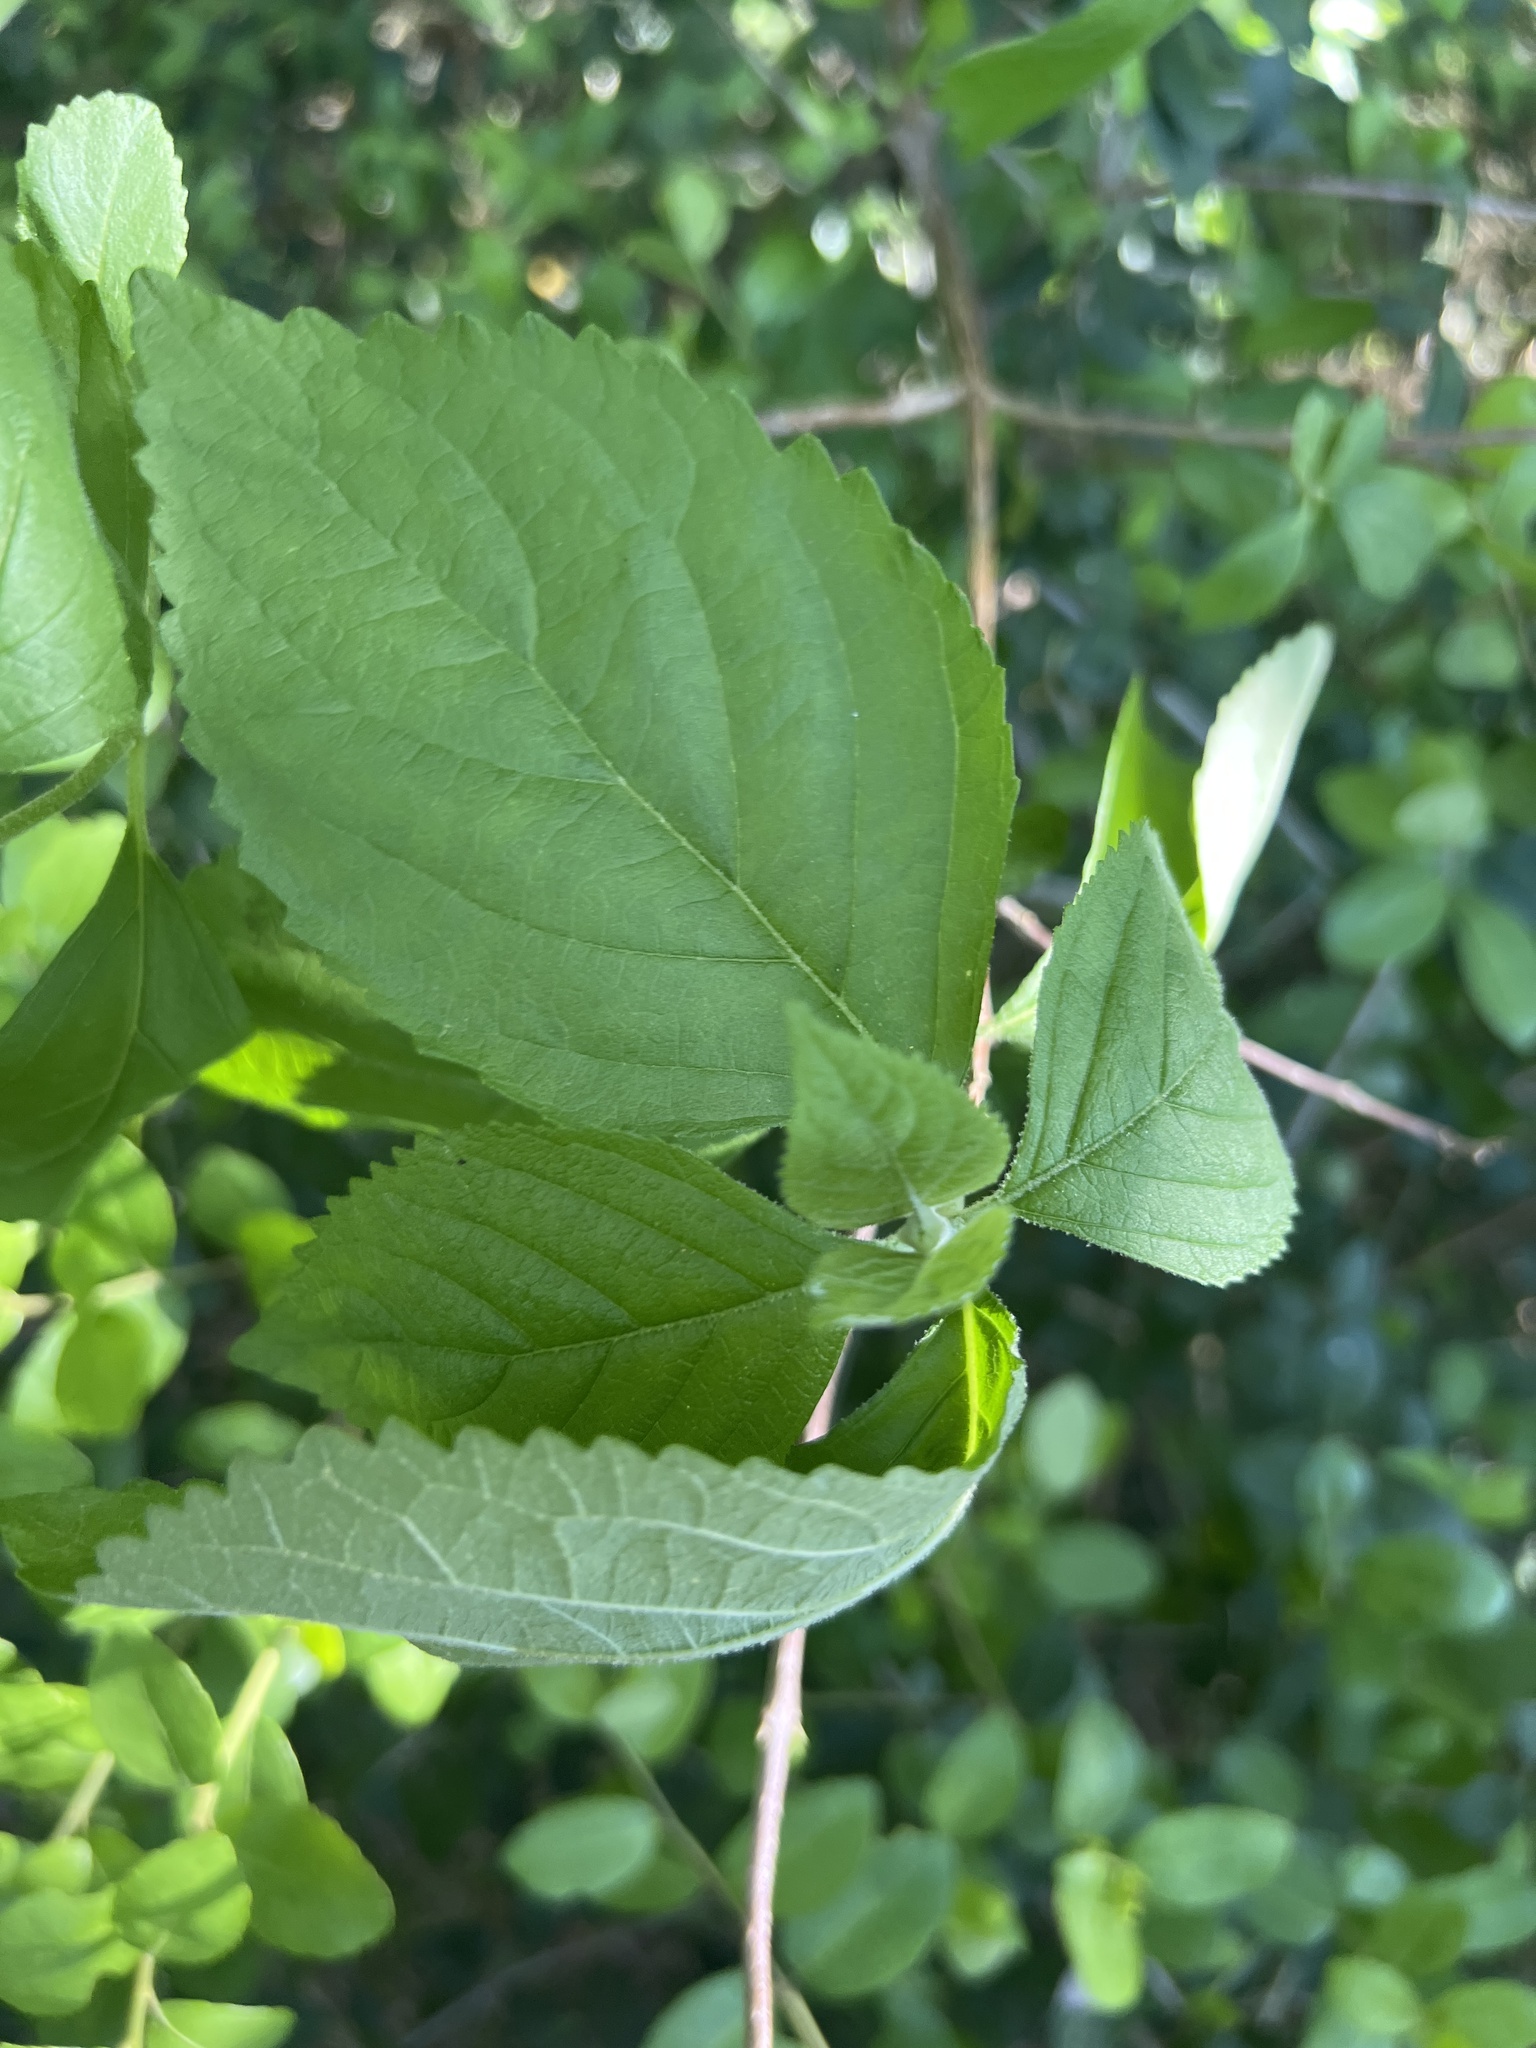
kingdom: Plantae
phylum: Tracheophyta
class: Magnoliopsida
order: Lamiales
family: Lamiaceae
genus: Callicarpa
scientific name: Callicarpa americana
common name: American beautyberry
